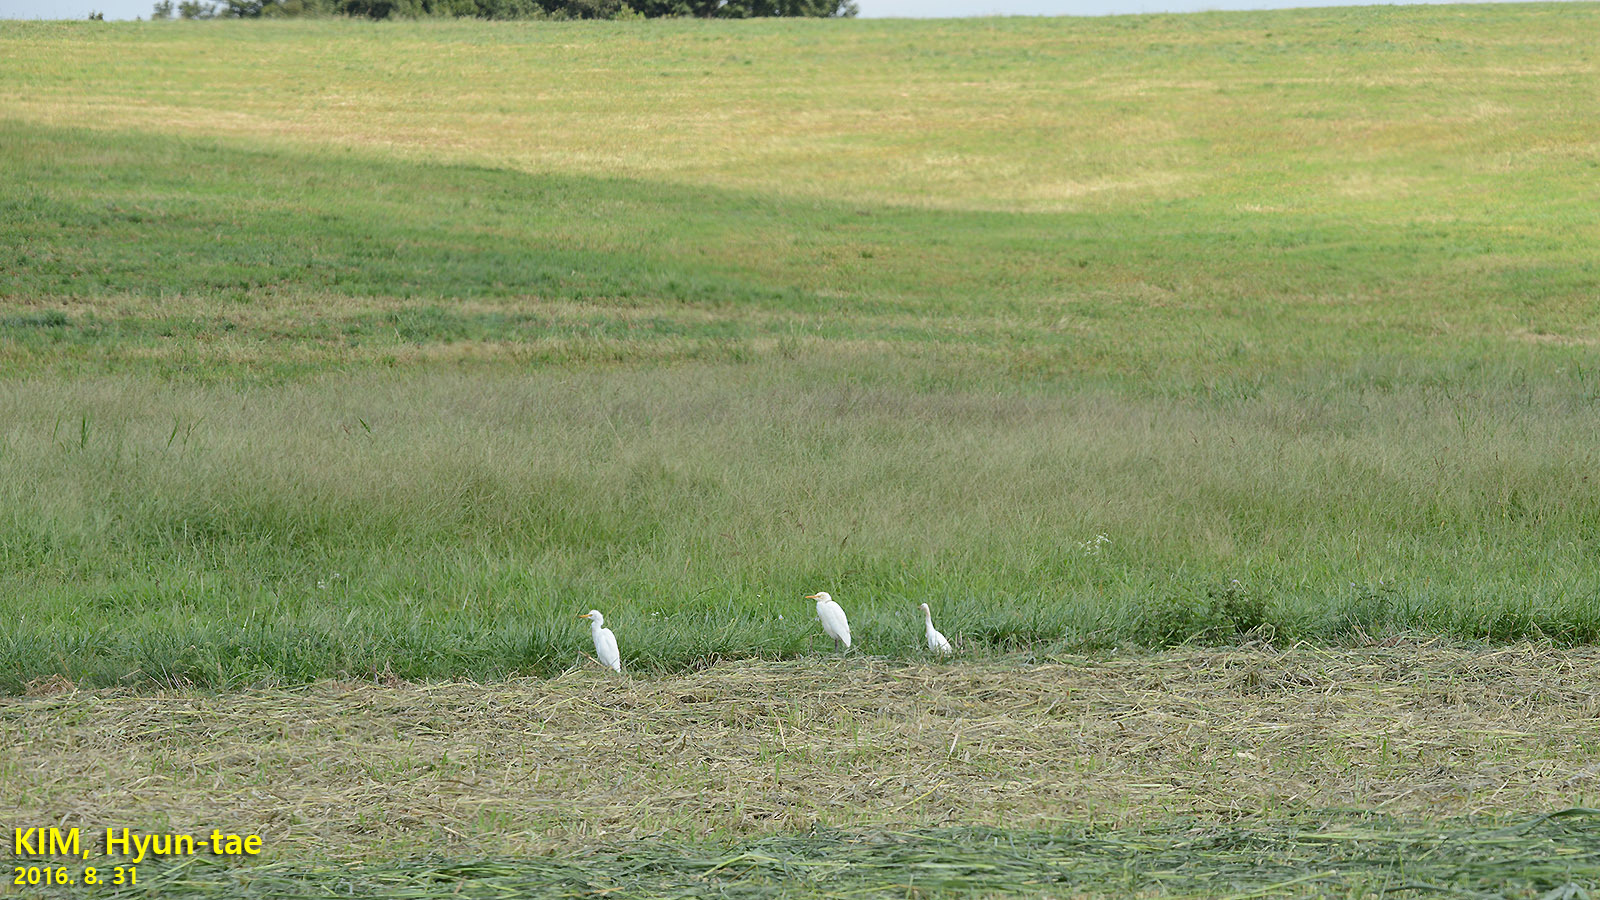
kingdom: Animalia
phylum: Chordata
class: Aves
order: Pelecaniformes
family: Ardeidae
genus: Bubulcus
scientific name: Bubulcus coromandus
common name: Eastern cattle egret
